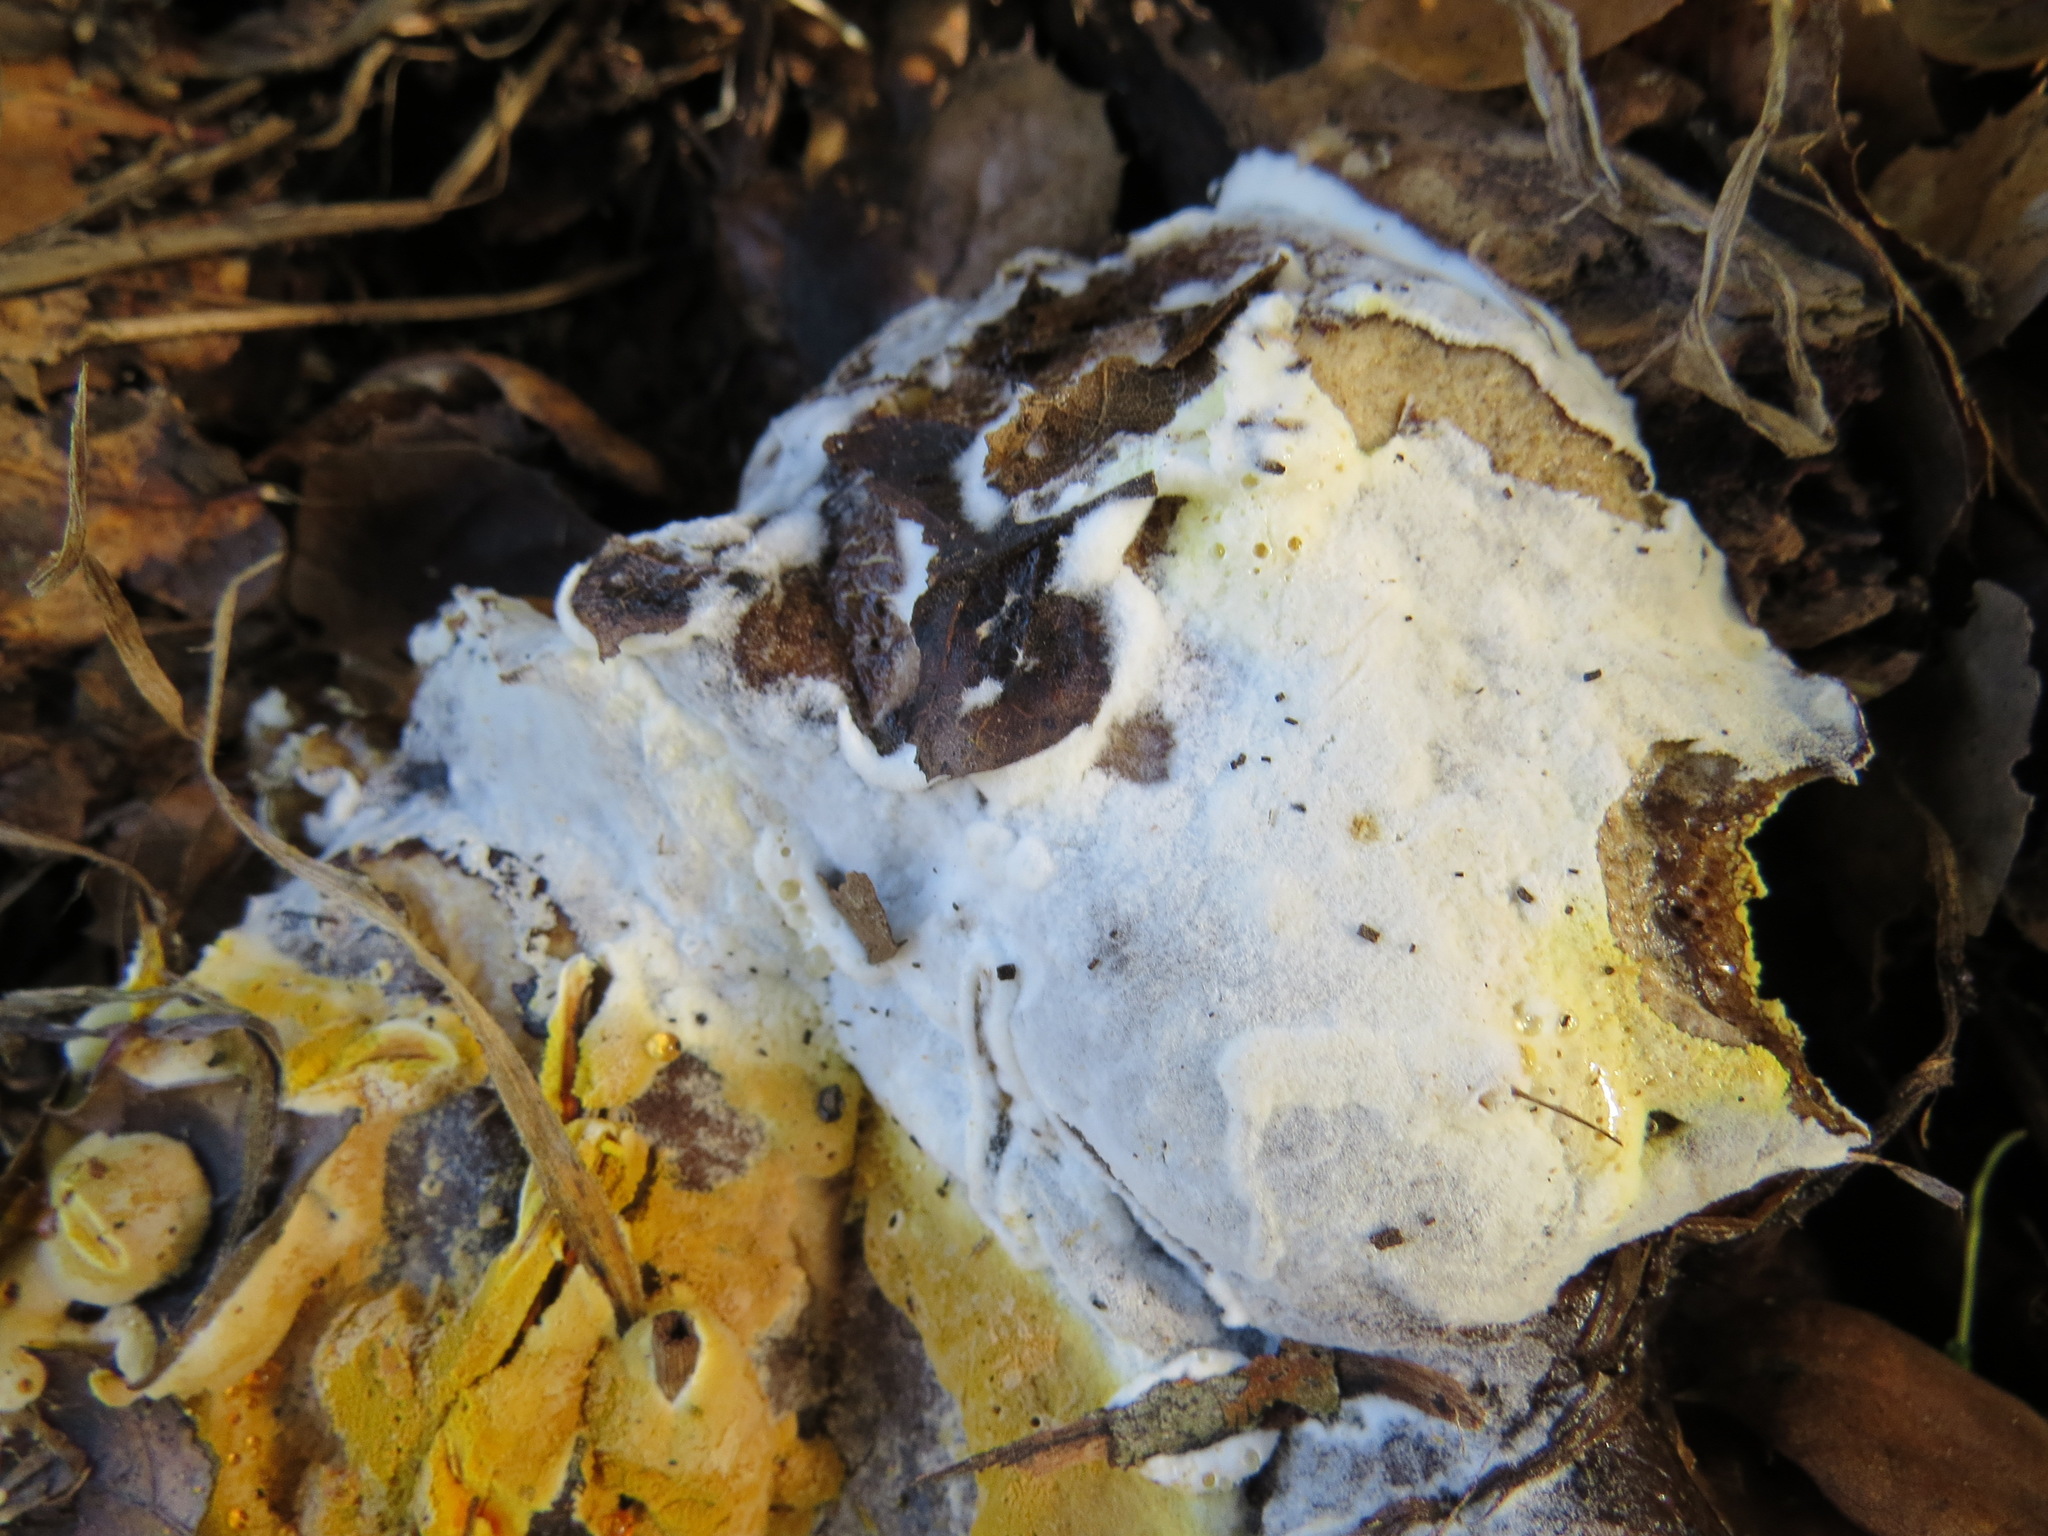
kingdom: Fungi
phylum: Ascomycota
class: Sordariomycetes
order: Hypocreales
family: Hypocreaceae
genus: Hypomyces
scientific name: Hypomyces chrysospermus
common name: Bolete mould
